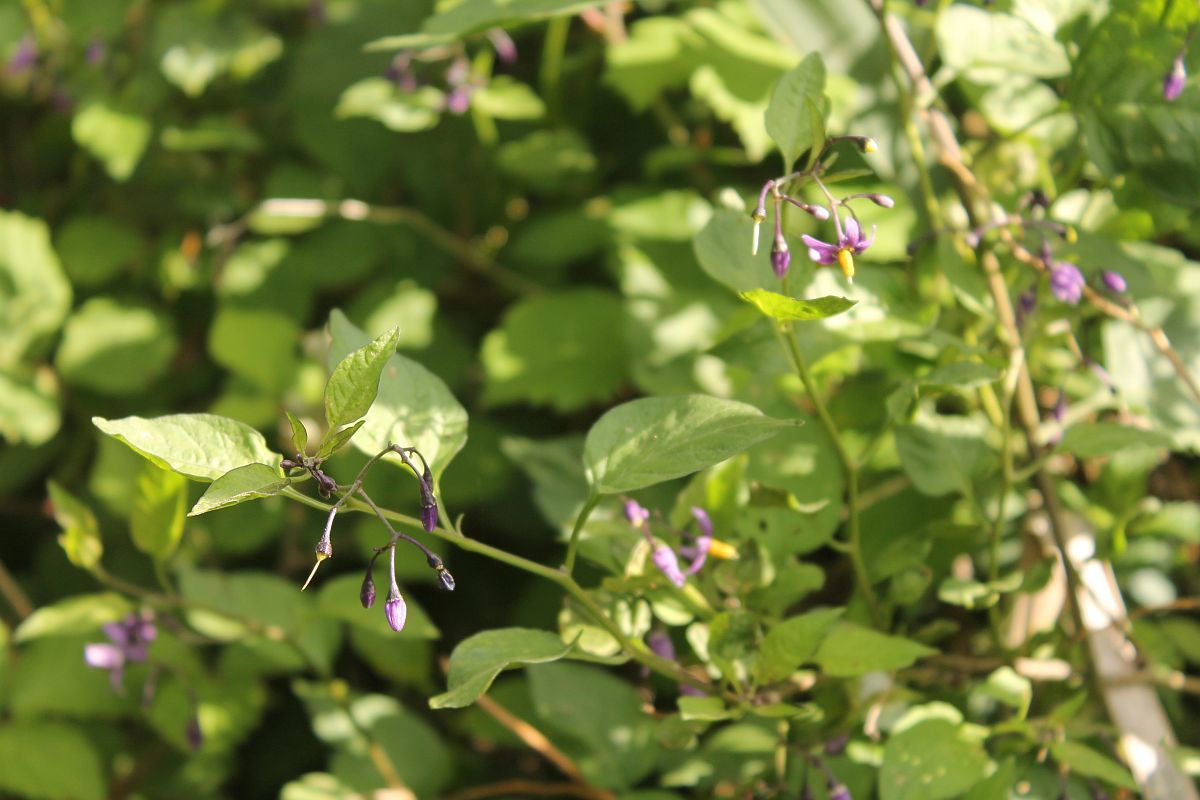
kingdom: Plantae
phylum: Tracheophyta
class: Magnoliopsida
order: Solanales
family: Solanaceae
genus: Solanum
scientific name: Solanum dulcamara
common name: Climbing nightshade
